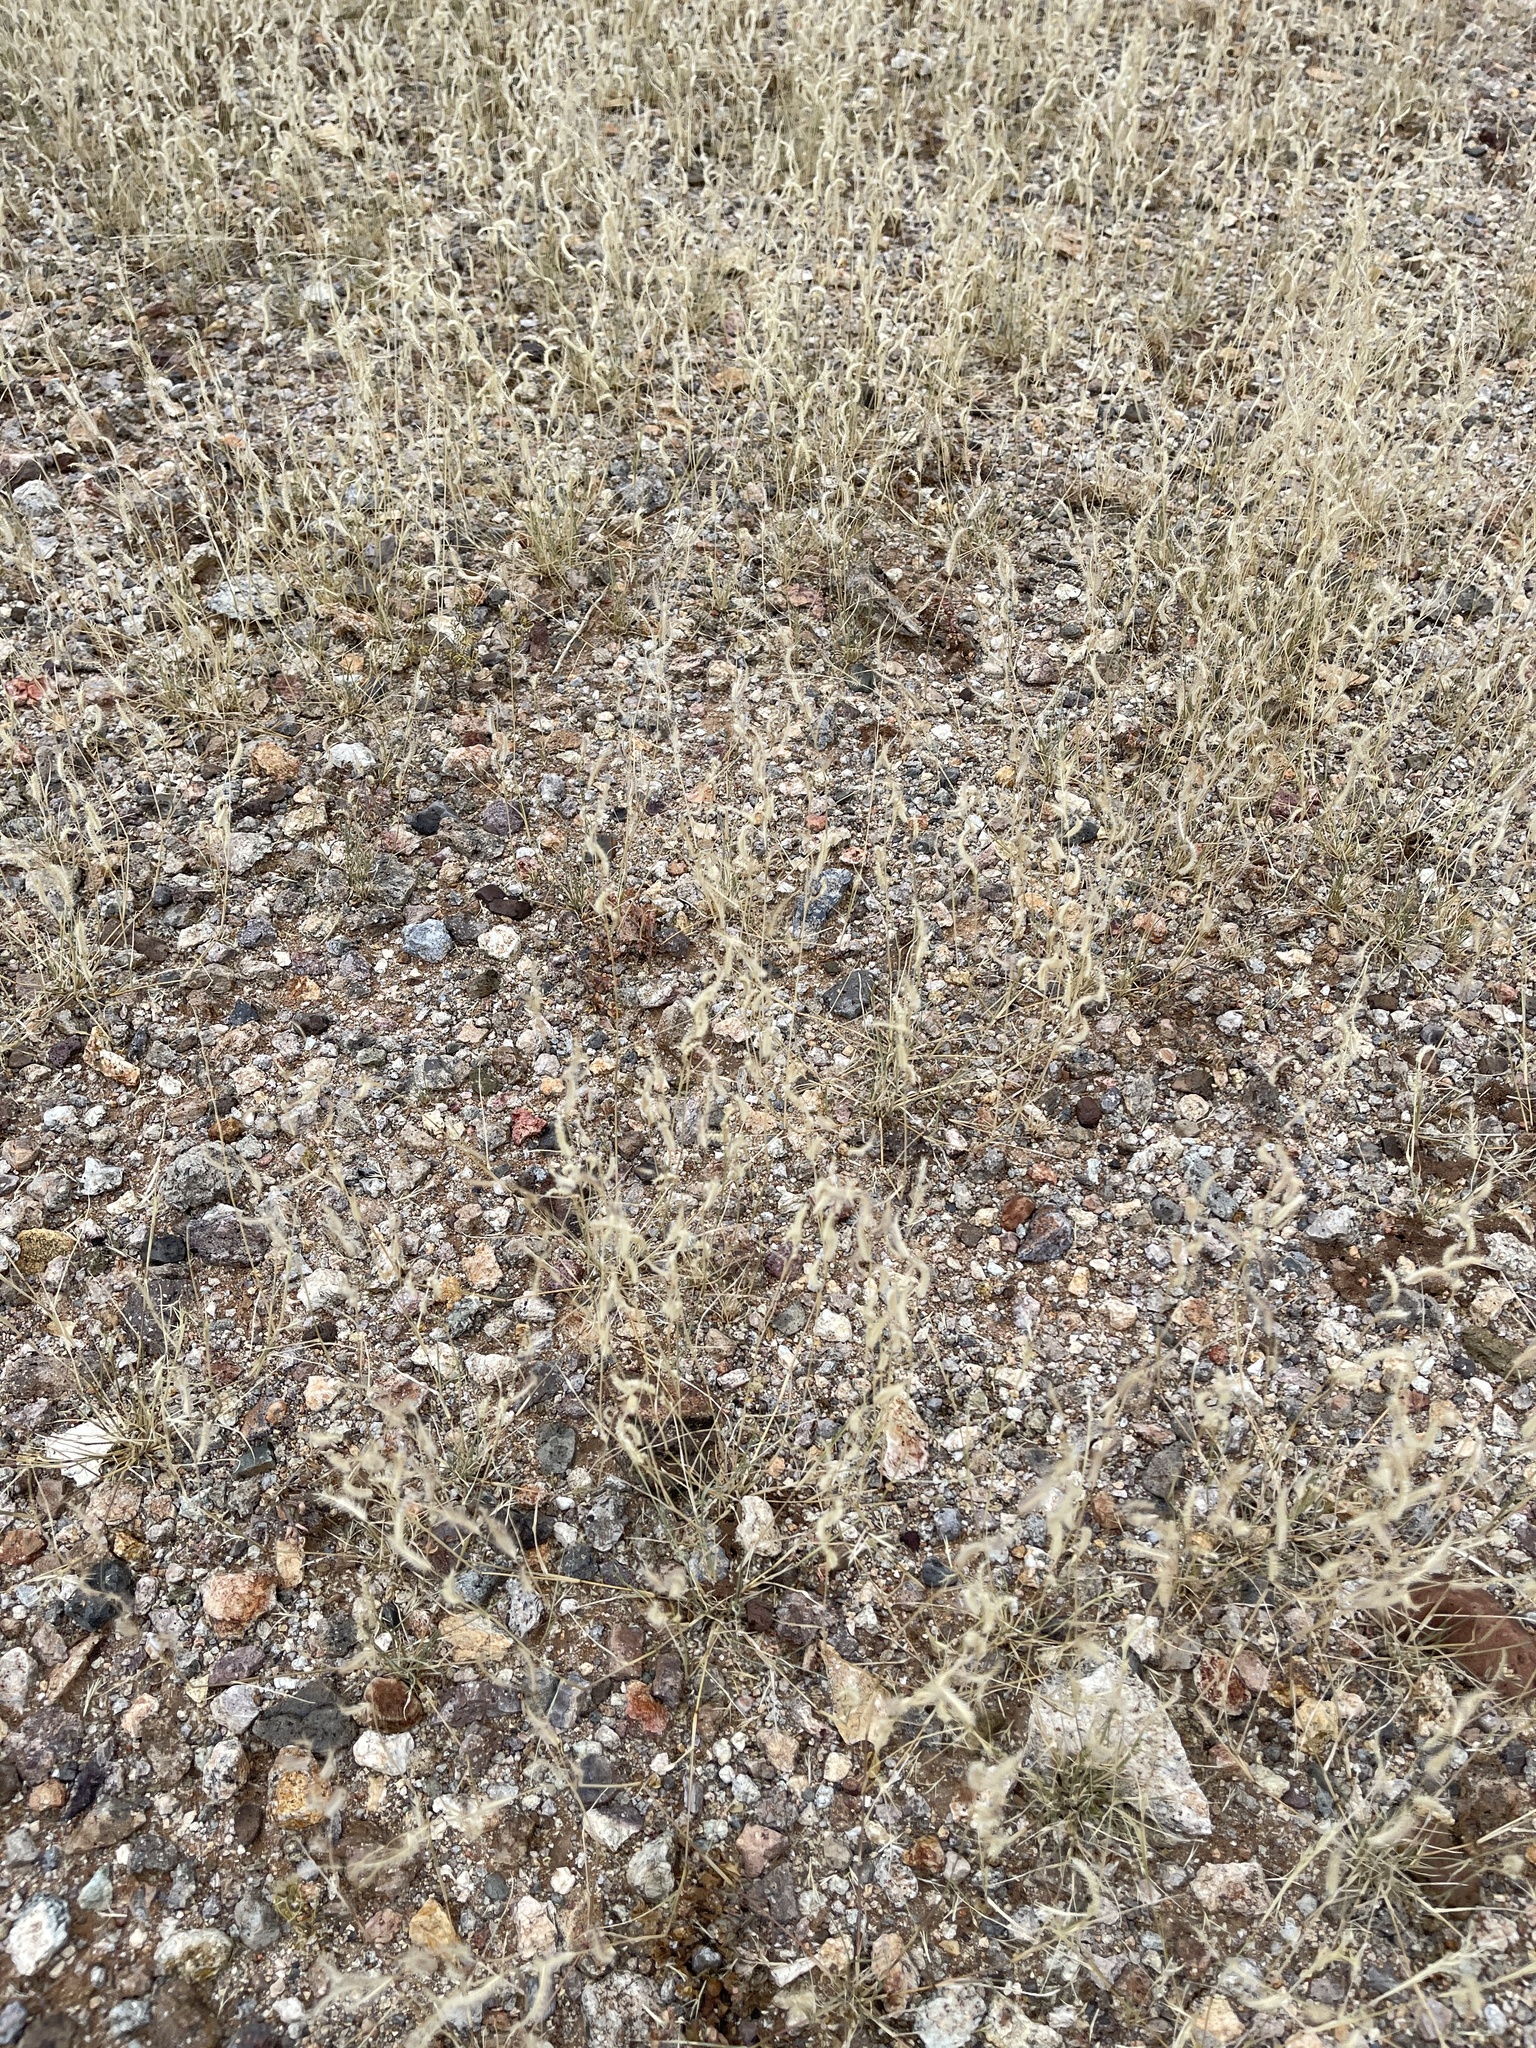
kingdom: Plantae
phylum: Tracheophyta
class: Liliopsida
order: Poales
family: Poaceae
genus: Bouteloua
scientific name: Bouteloua barbata
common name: Six-weeks grama
